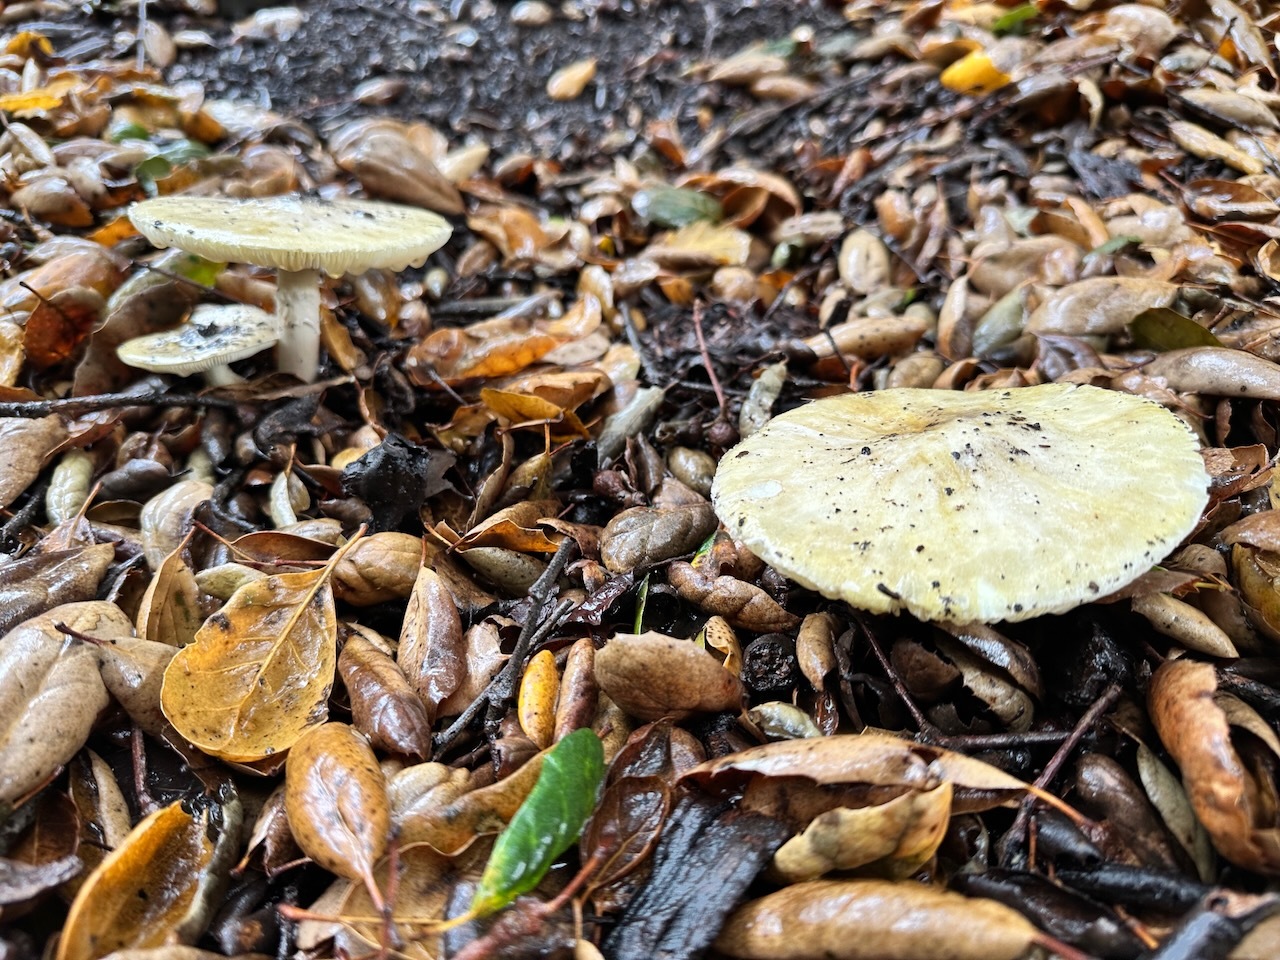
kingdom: Fungi
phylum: Basidiomycota
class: Agaricomycetes
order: Agaricales
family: Amanitaceae
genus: Amanita
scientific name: Amanita phalloides
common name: Death cap
